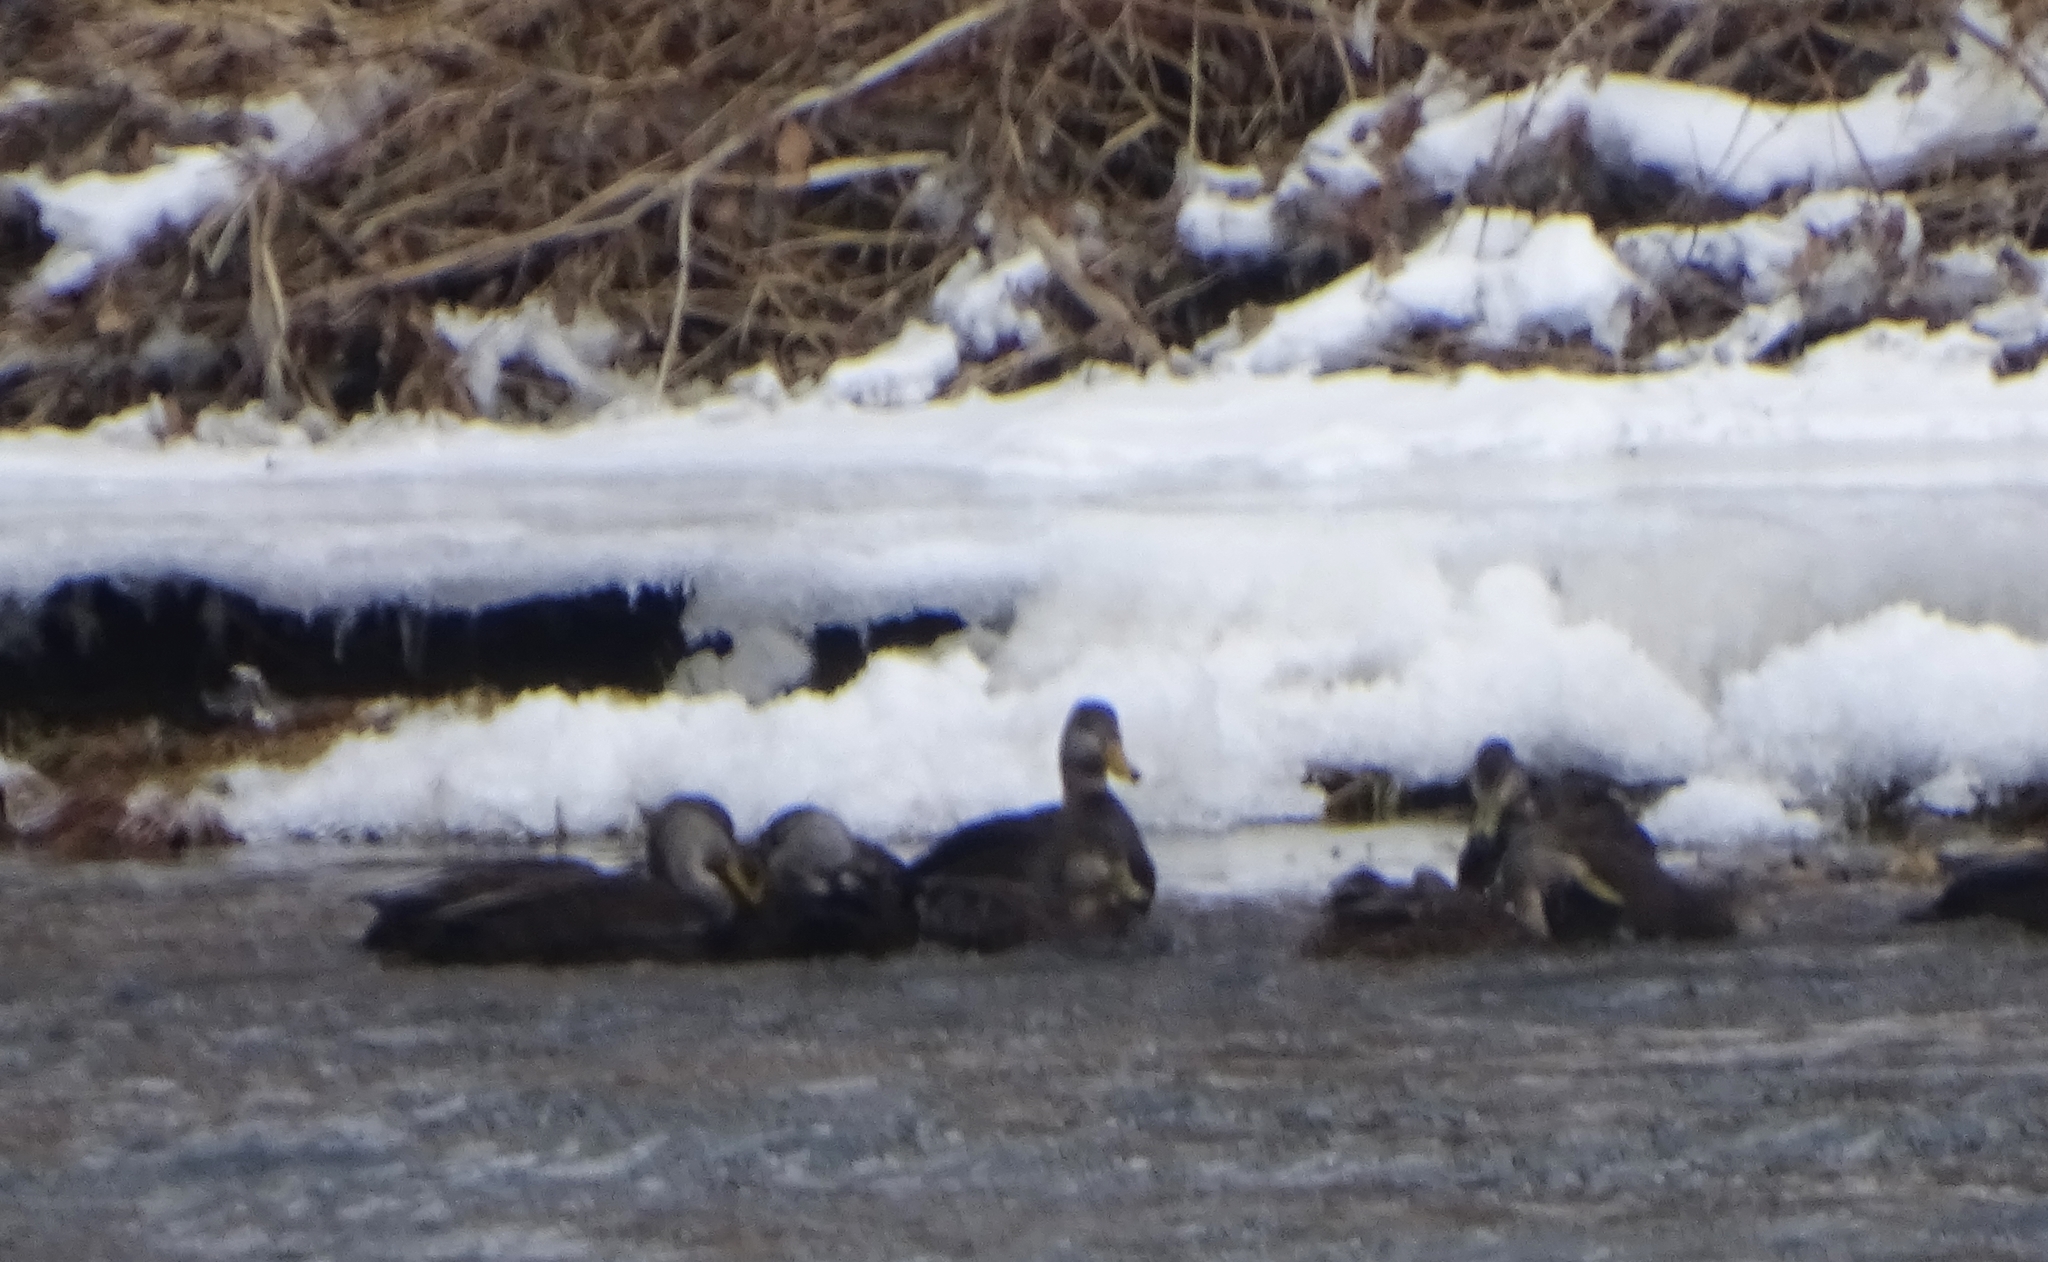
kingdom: Animalia
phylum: Chordata
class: Aves
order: Anseriformes
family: Anatidae
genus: Anas
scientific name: Anas rubripes
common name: American black duck
